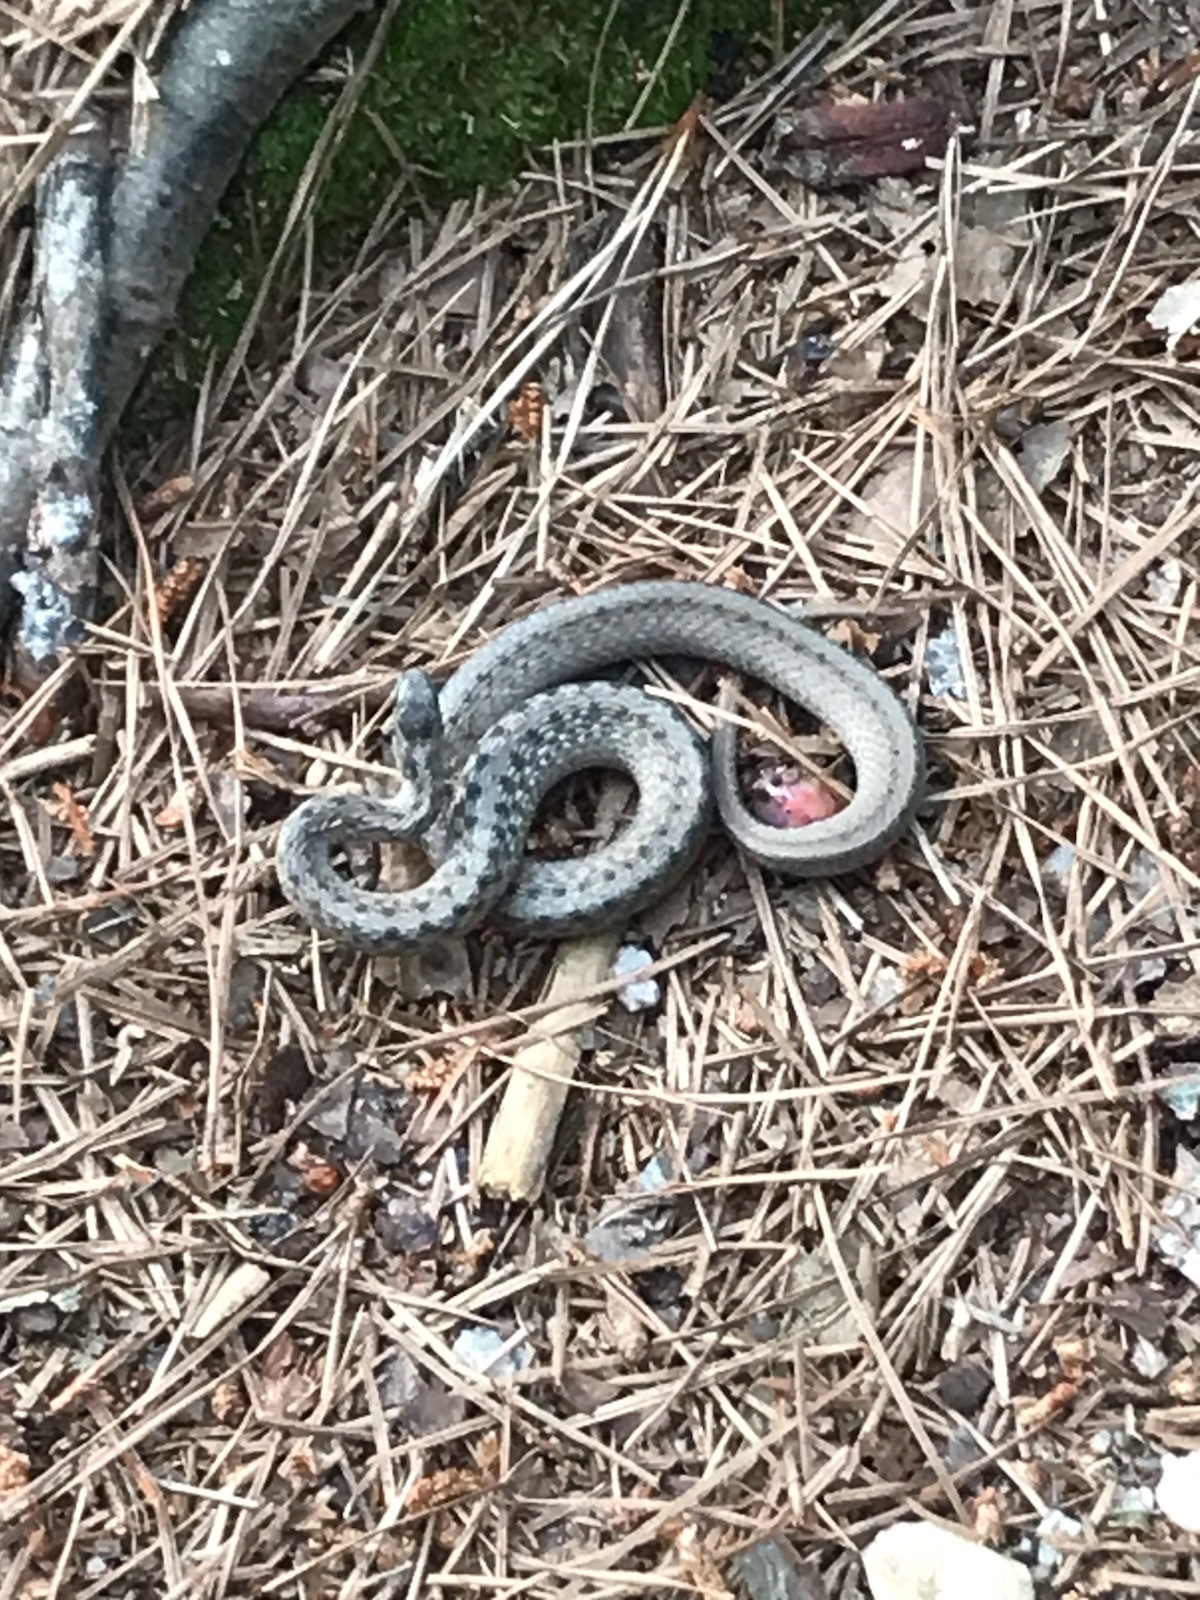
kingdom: Animalia
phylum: Chordata
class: Squamata
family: Colubridae
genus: Storeria
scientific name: Storeria dekayi
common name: (dekay’s) brown snake
